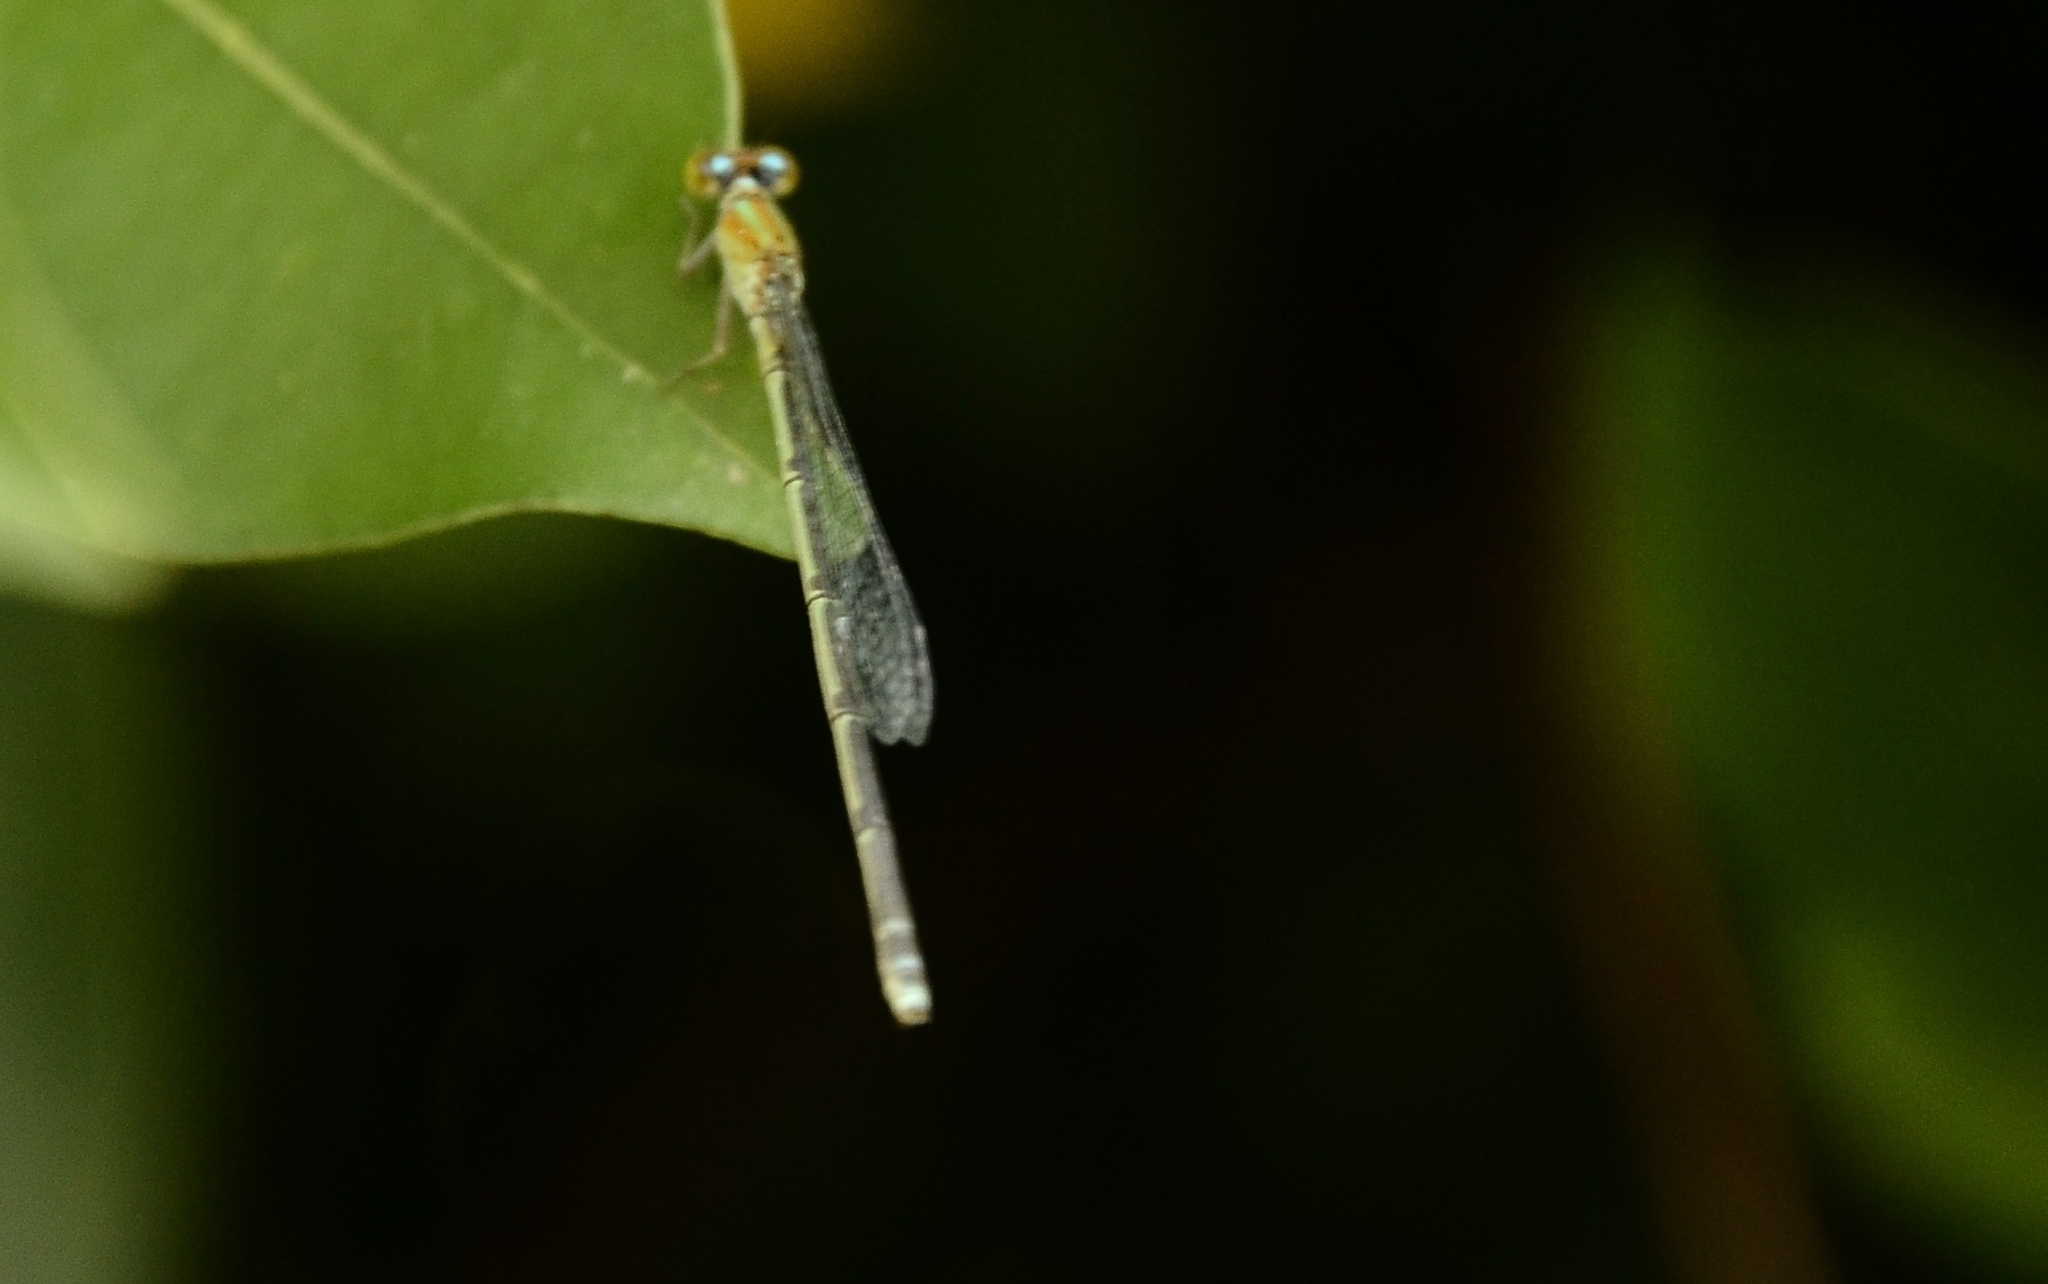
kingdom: Animalia
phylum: Arthropoda
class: Insecta
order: Odonata
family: Coenagrionidae
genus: Pseudagrion
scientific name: Pseudagrion microcephalum
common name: Blue riverdamsel
